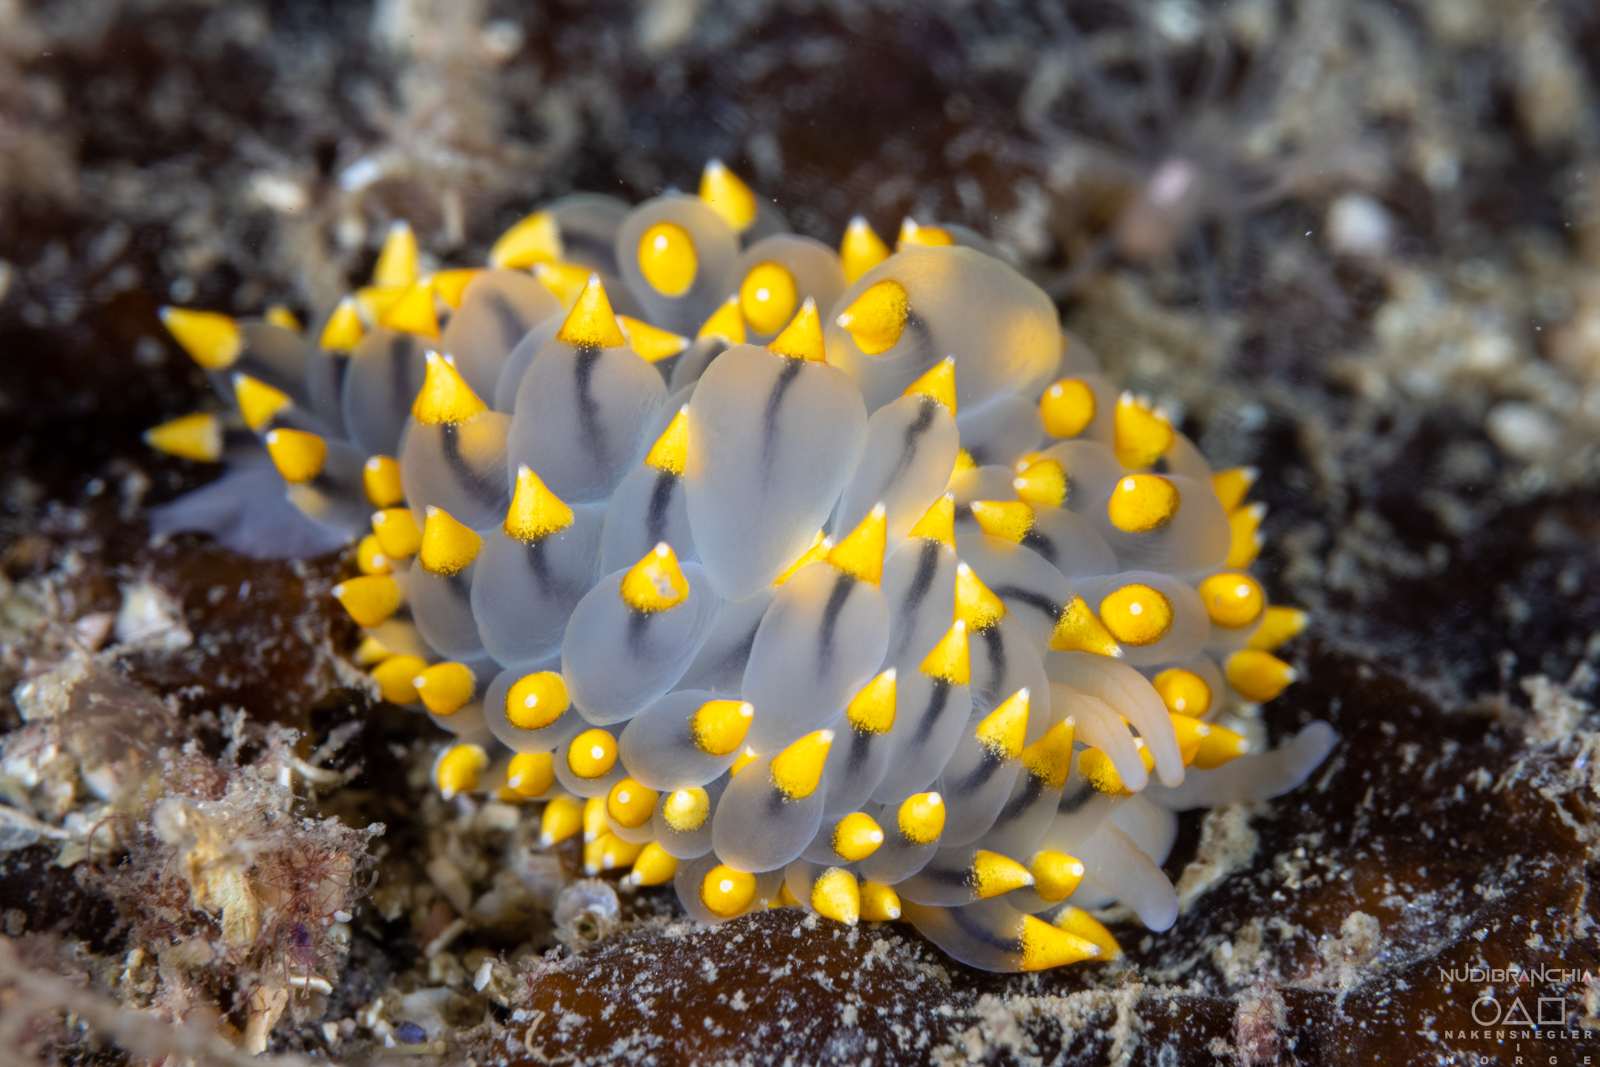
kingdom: Animalia
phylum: Mollusca
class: Gastropoda
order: Nudibranchia
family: Eubranchidae
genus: Eubranchus
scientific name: Eubranchus tricolor
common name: Painted balloon aeolis
